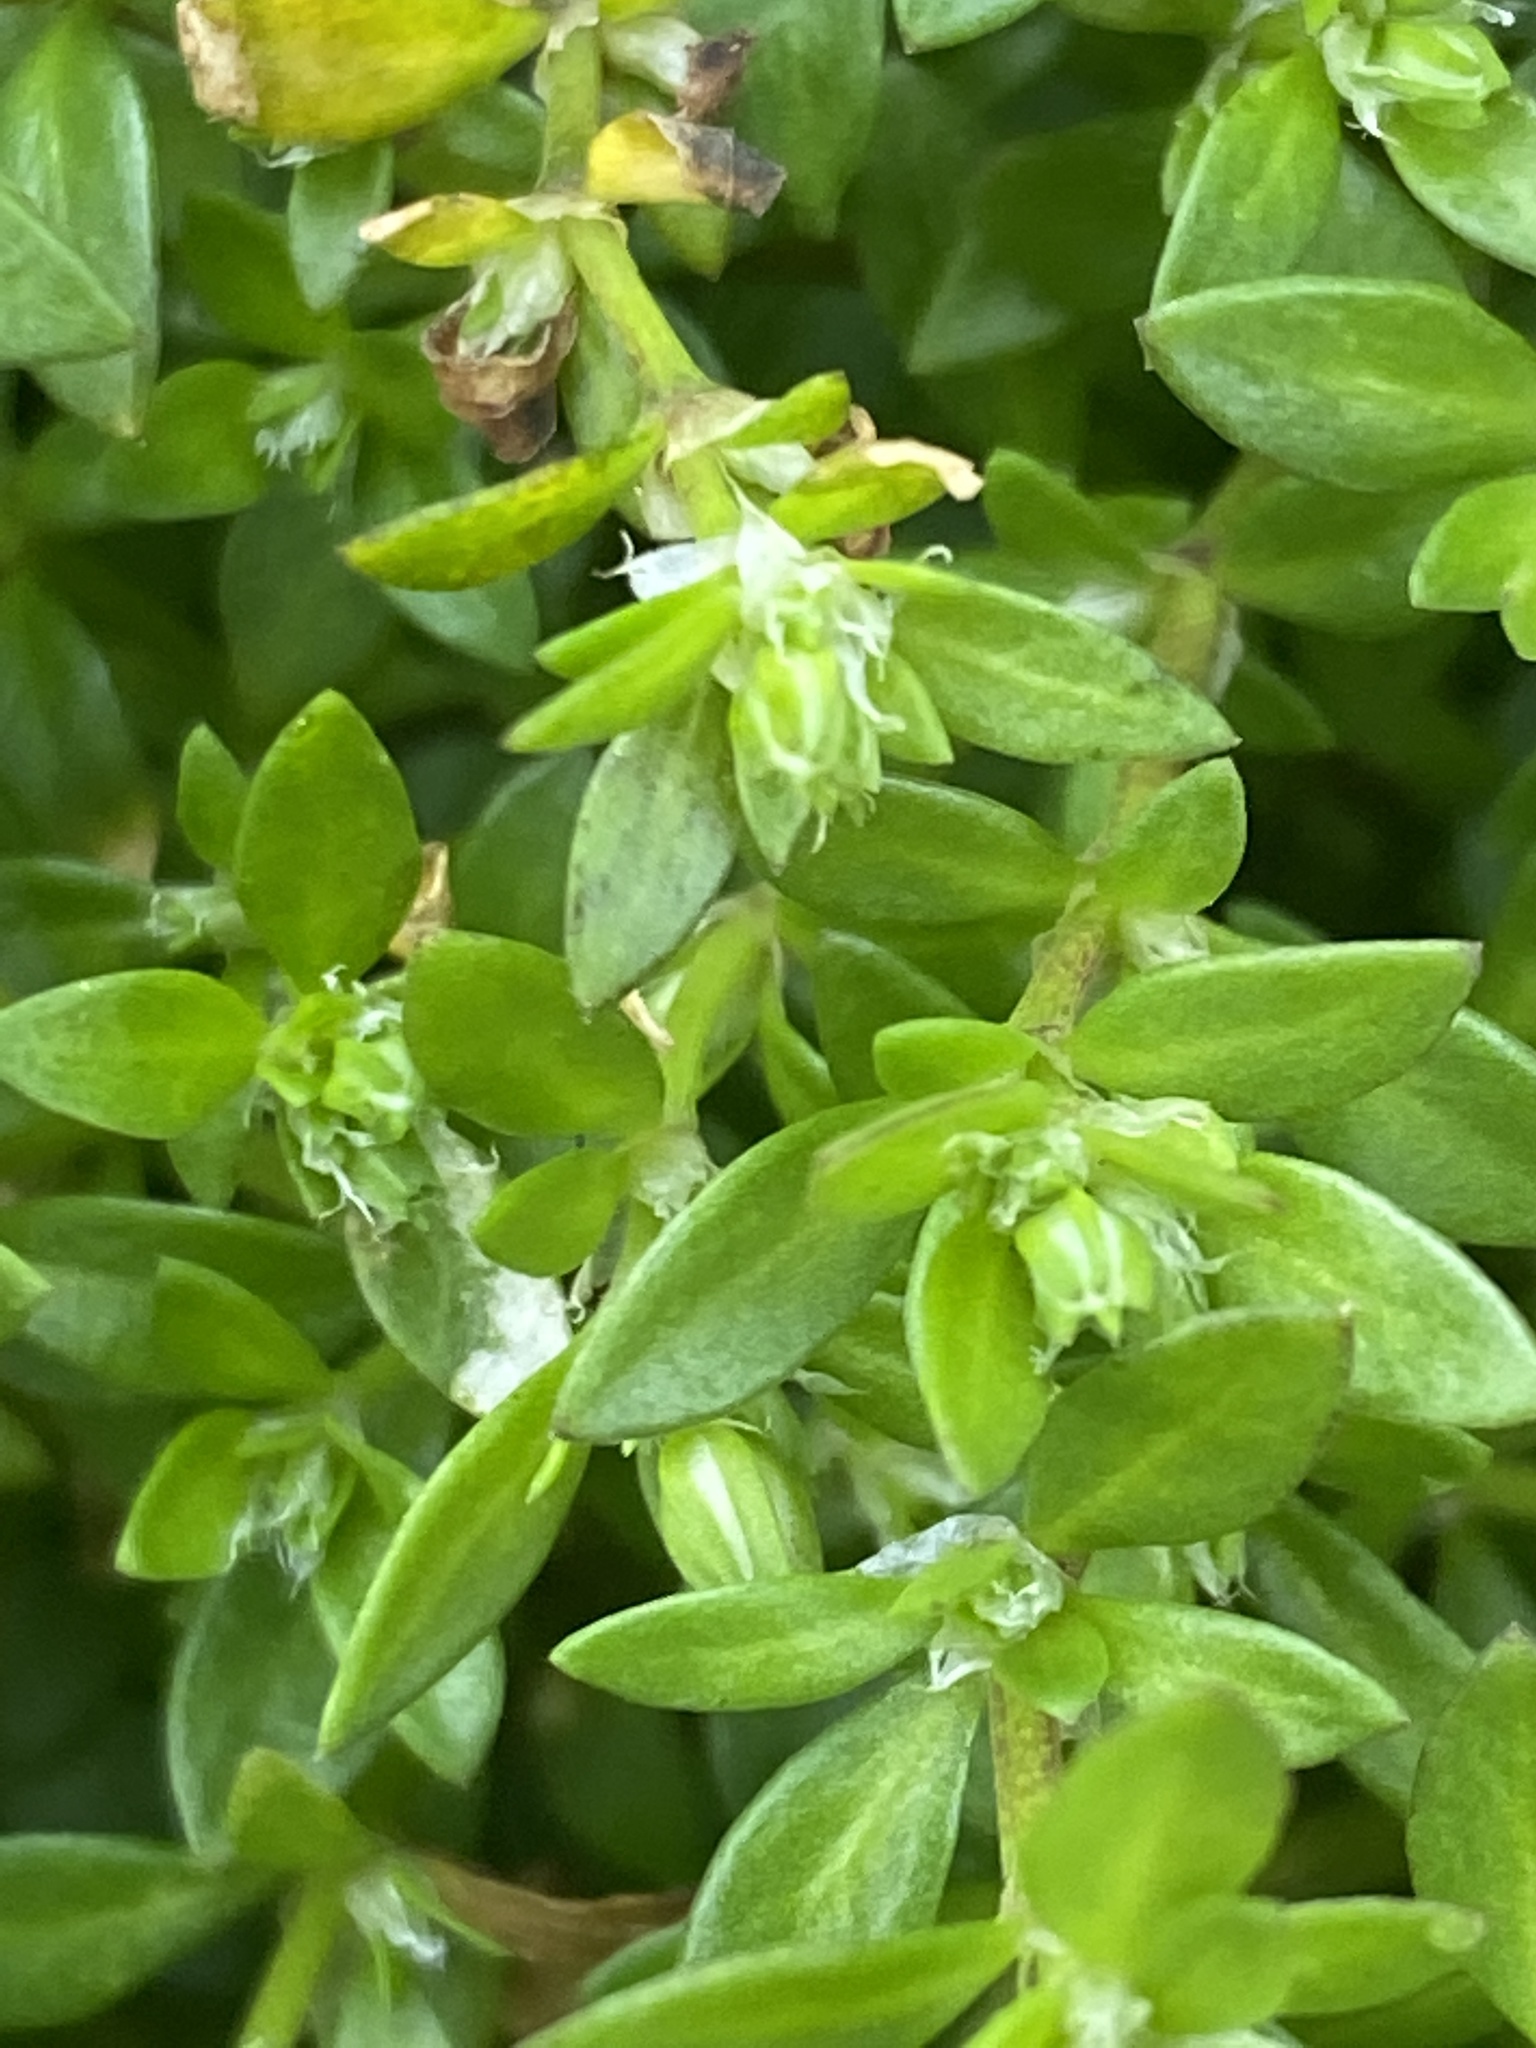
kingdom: Plantae
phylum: Tracheophyta
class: Magnoliopsida
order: Caryophyllales
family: Caryophyllaceae
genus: Polycarpon
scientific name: Polycarpon tetraphyllum
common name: Four-leaved all-seed
